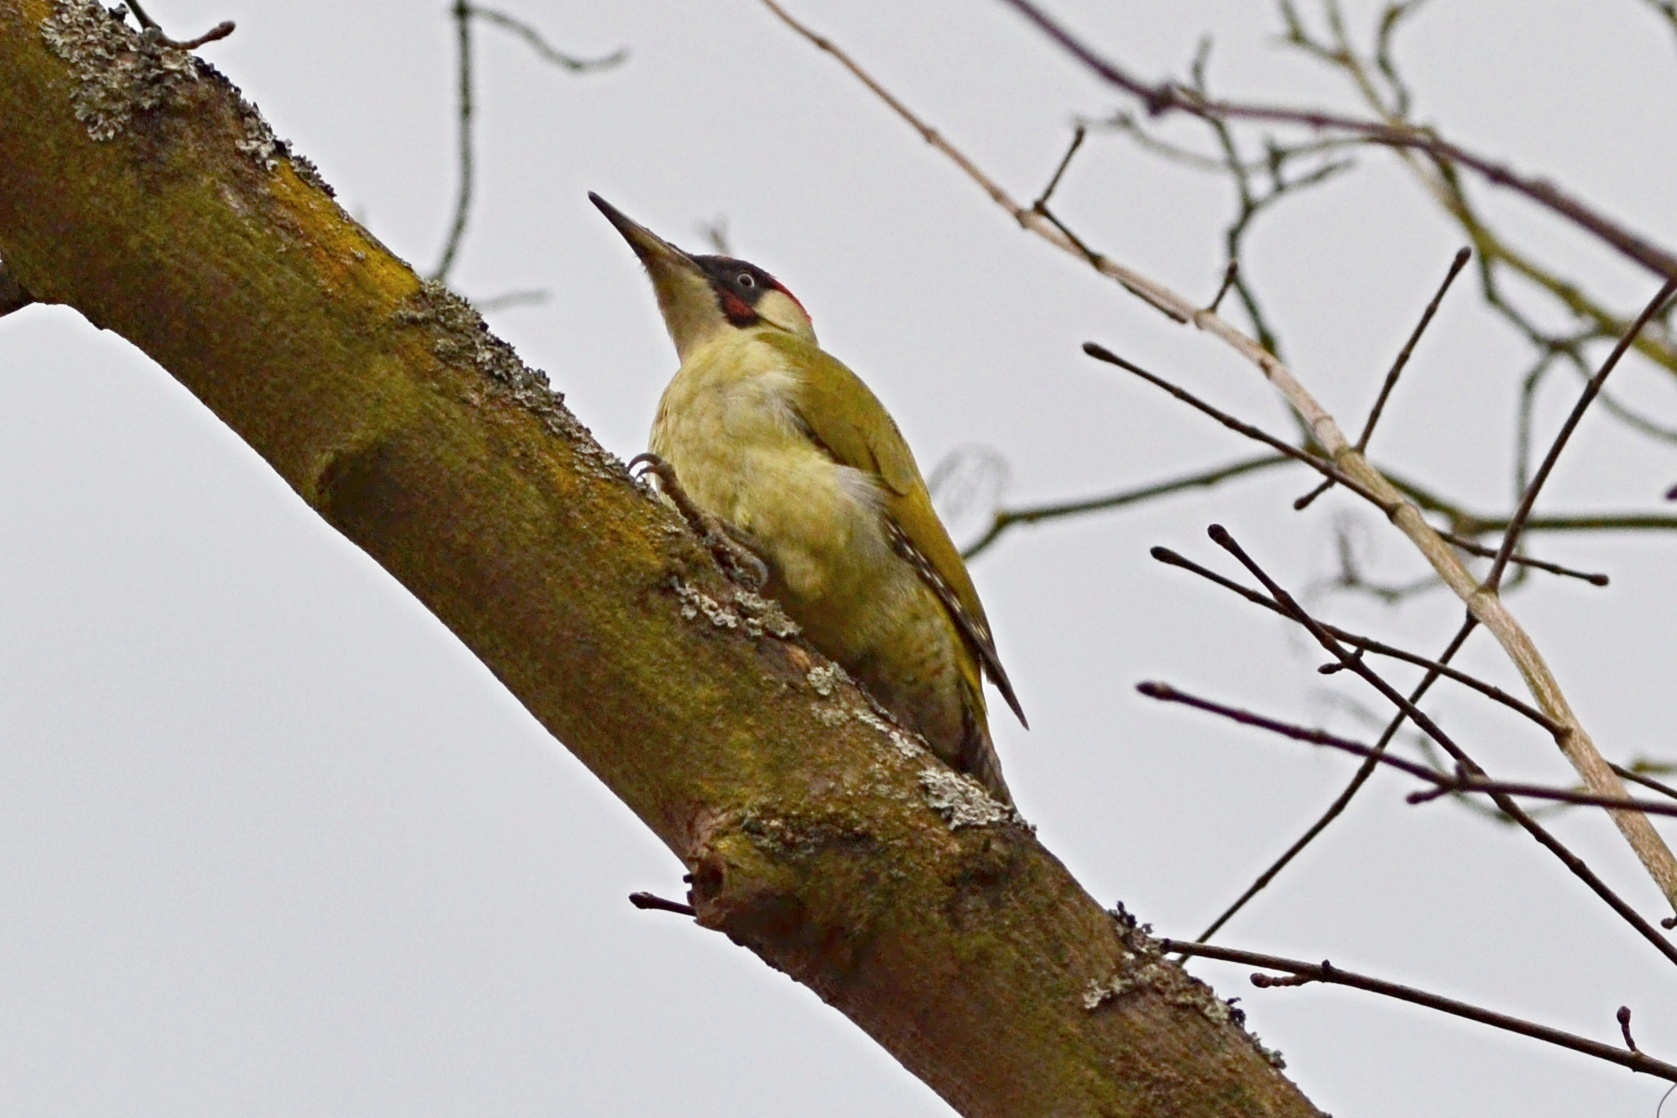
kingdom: Animalia
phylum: Chordata
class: Aves
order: Piciformes
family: Picidae
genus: Picus
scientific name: Picus viridis
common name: European green woodpecker
